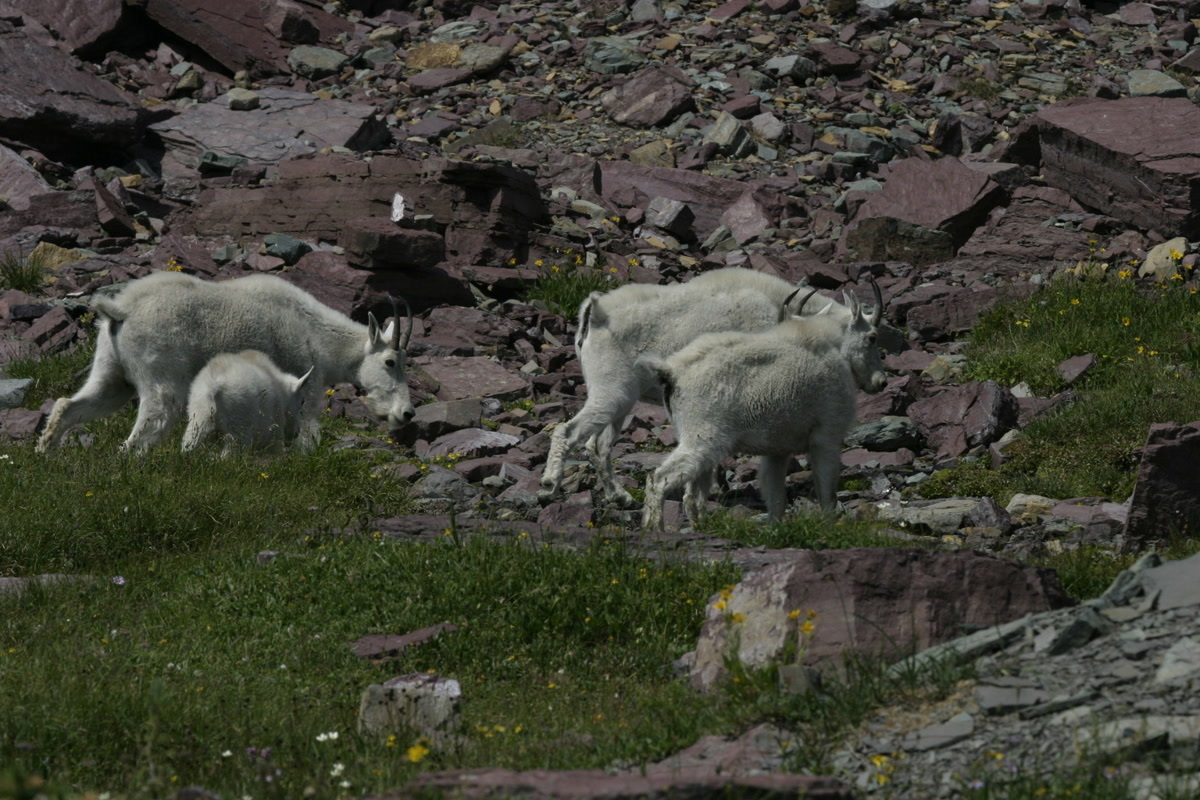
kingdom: Animalia
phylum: Chordata
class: Mammalia
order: Artiodactyla
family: Bovidae
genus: Oreamnos
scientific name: Oreamnos americanus
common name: Mountain goat
